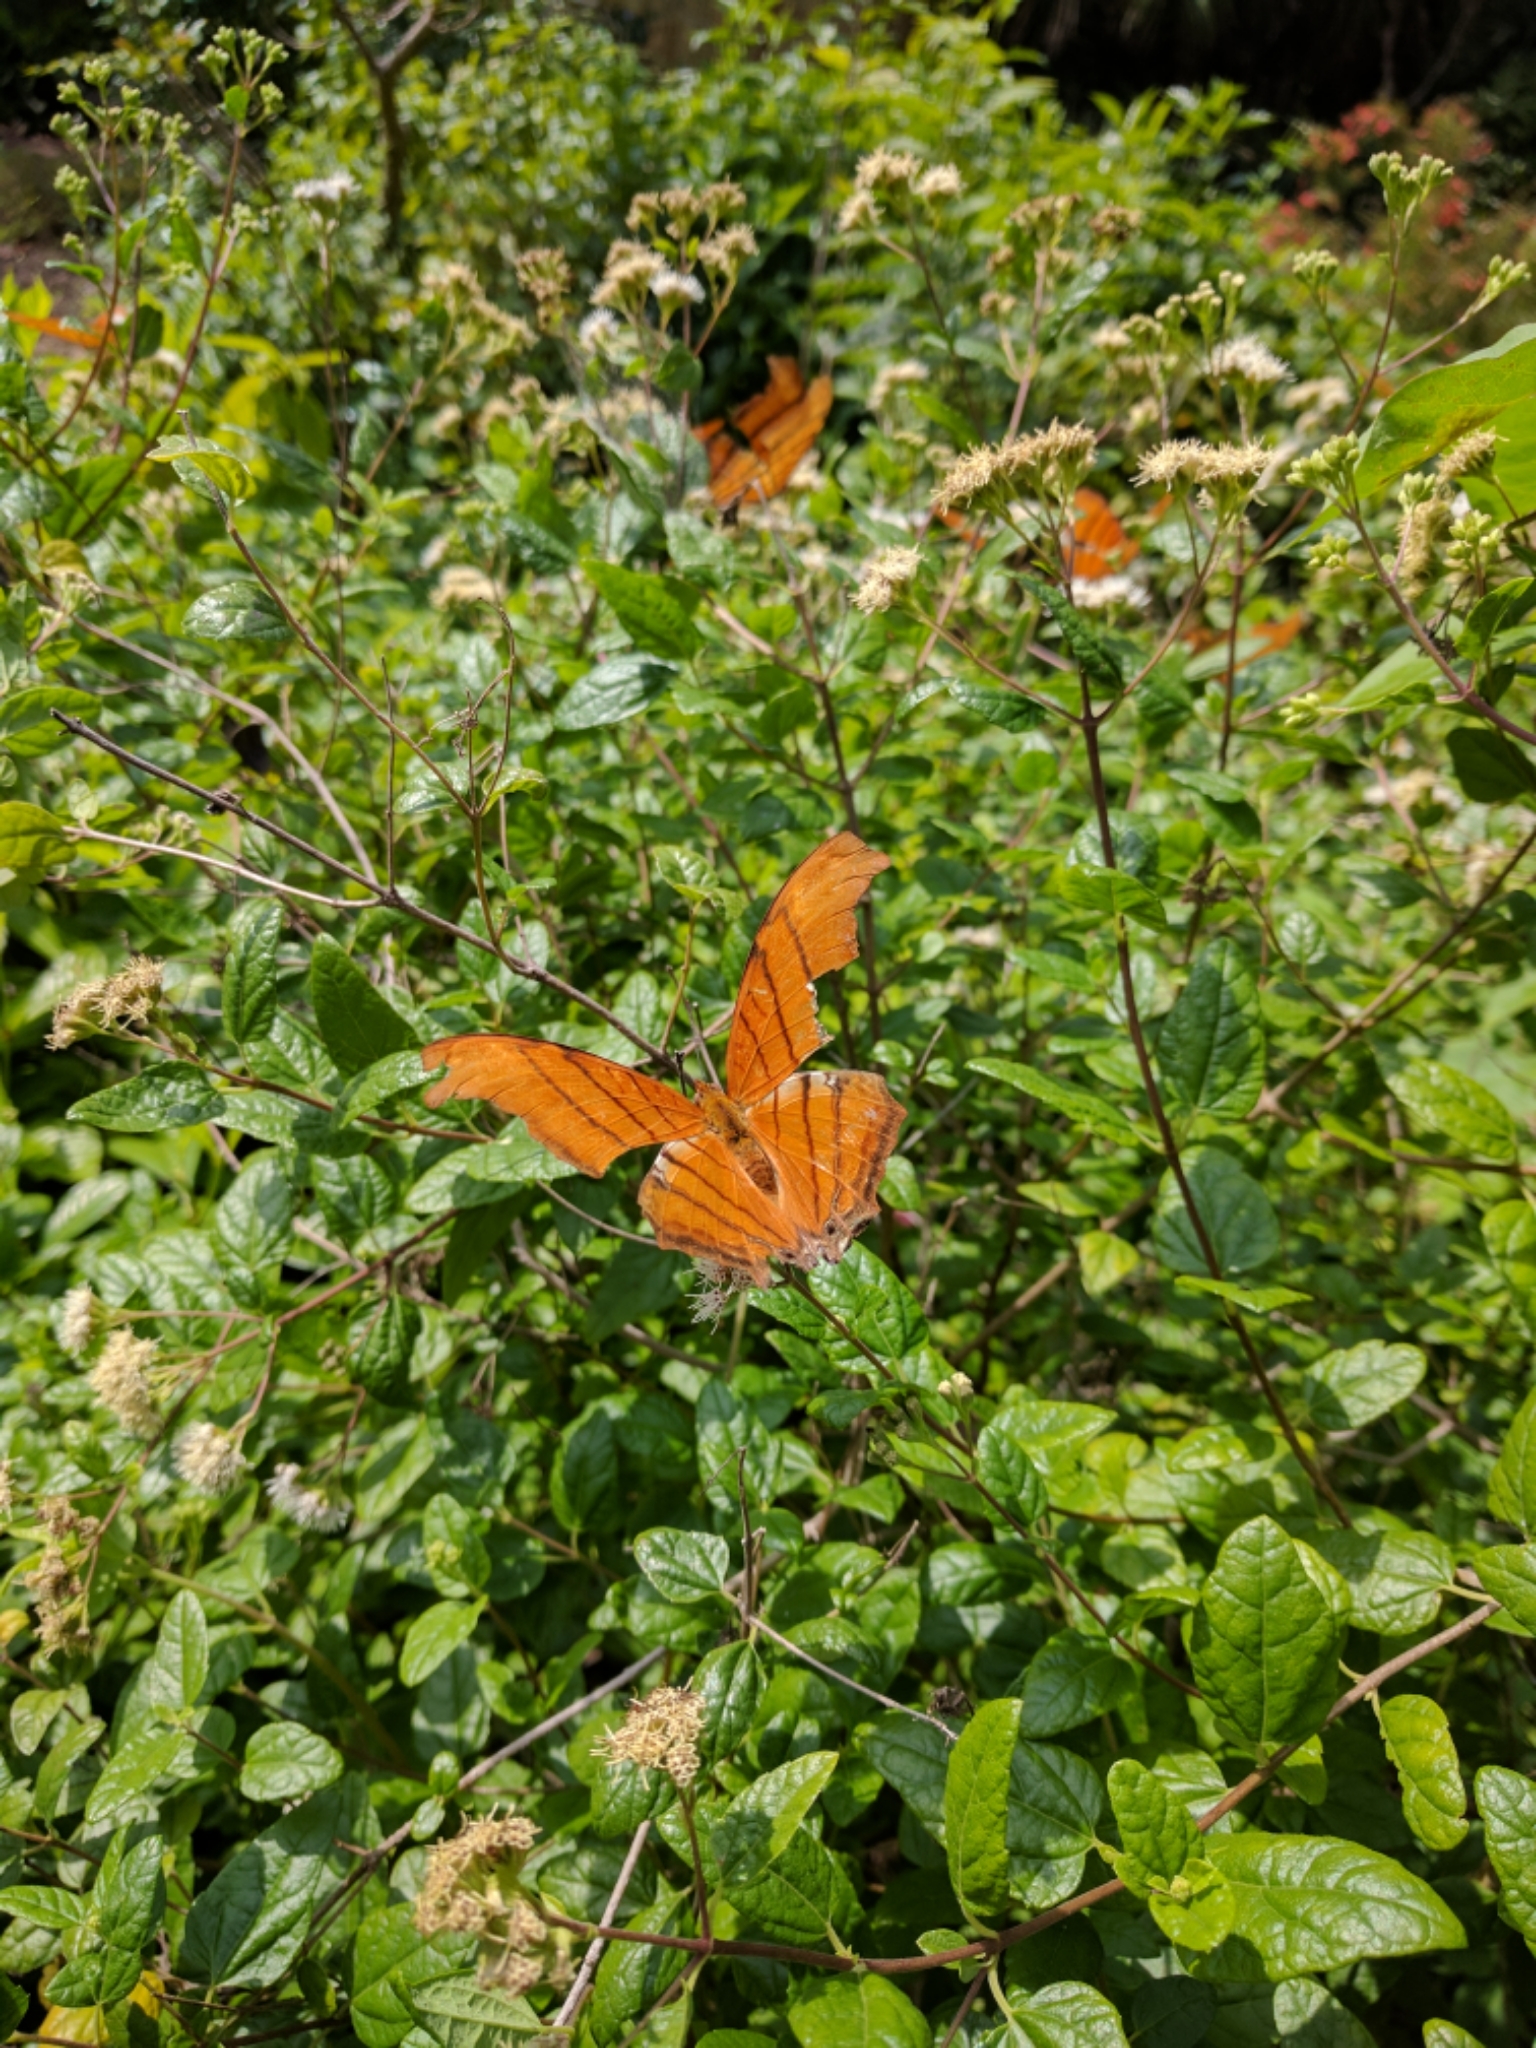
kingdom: Animalia
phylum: Arthropoda
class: Insecta
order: Lepidoptera
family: Nymphalidae
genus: Marpesia
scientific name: Marpesia petreus
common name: Red dagger wing
